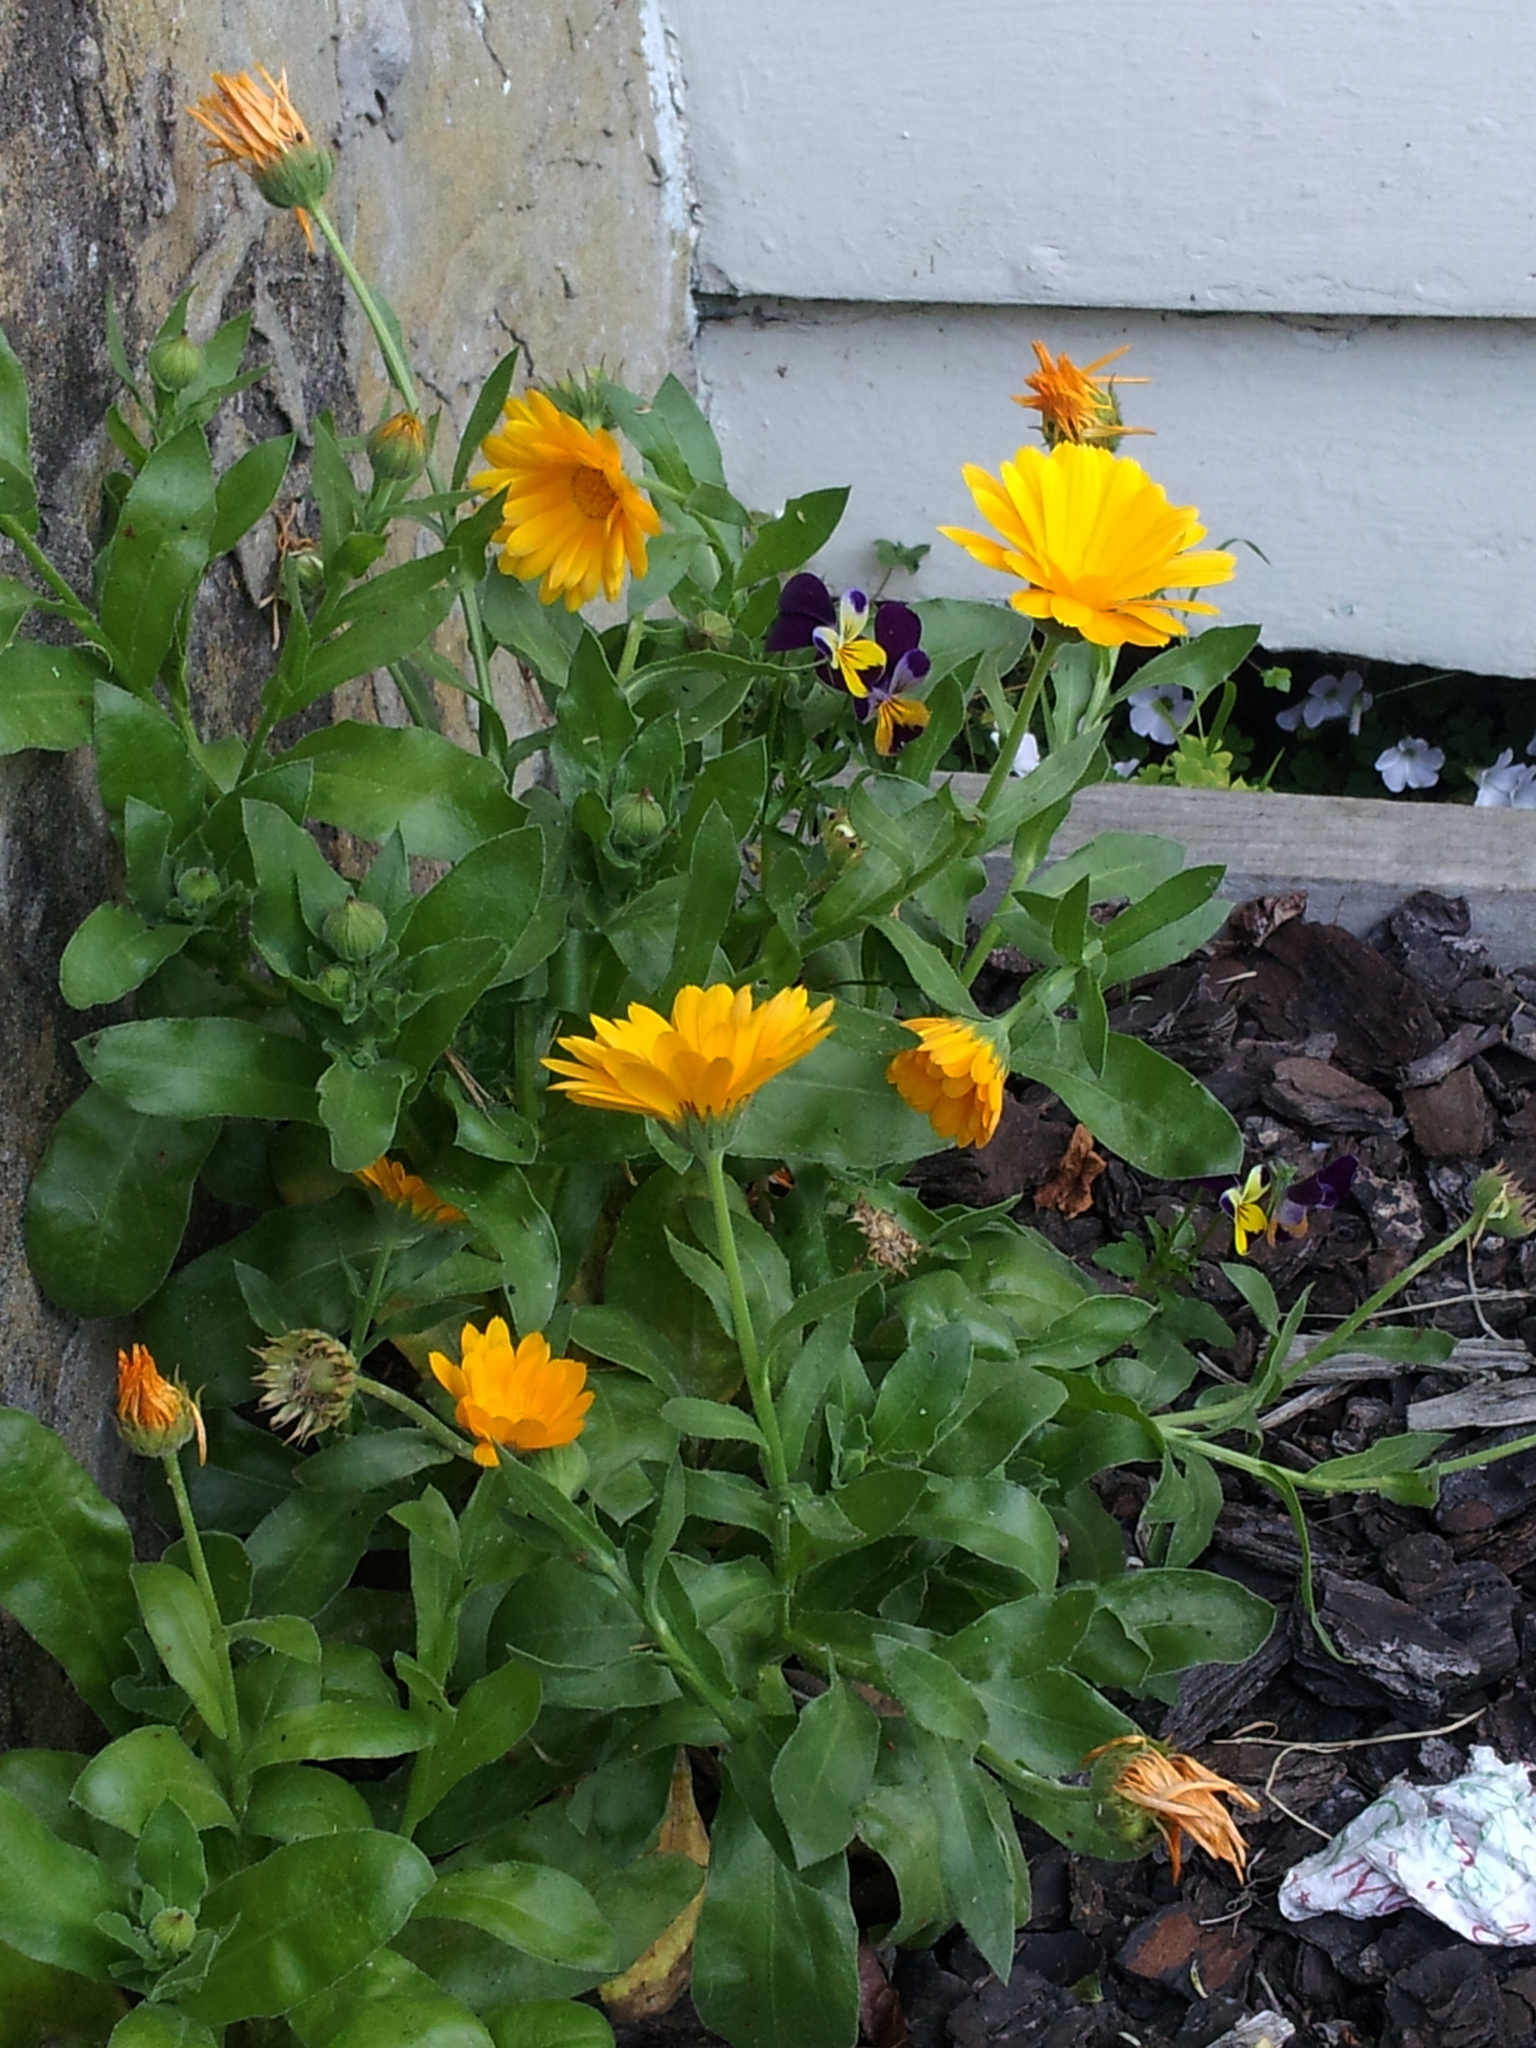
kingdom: Plantae
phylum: Tracheophyta
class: Magnoliopsida
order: Asterales
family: Asteraceae
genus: Calendula
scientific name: Calendula officinalis
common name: Pot marigold
